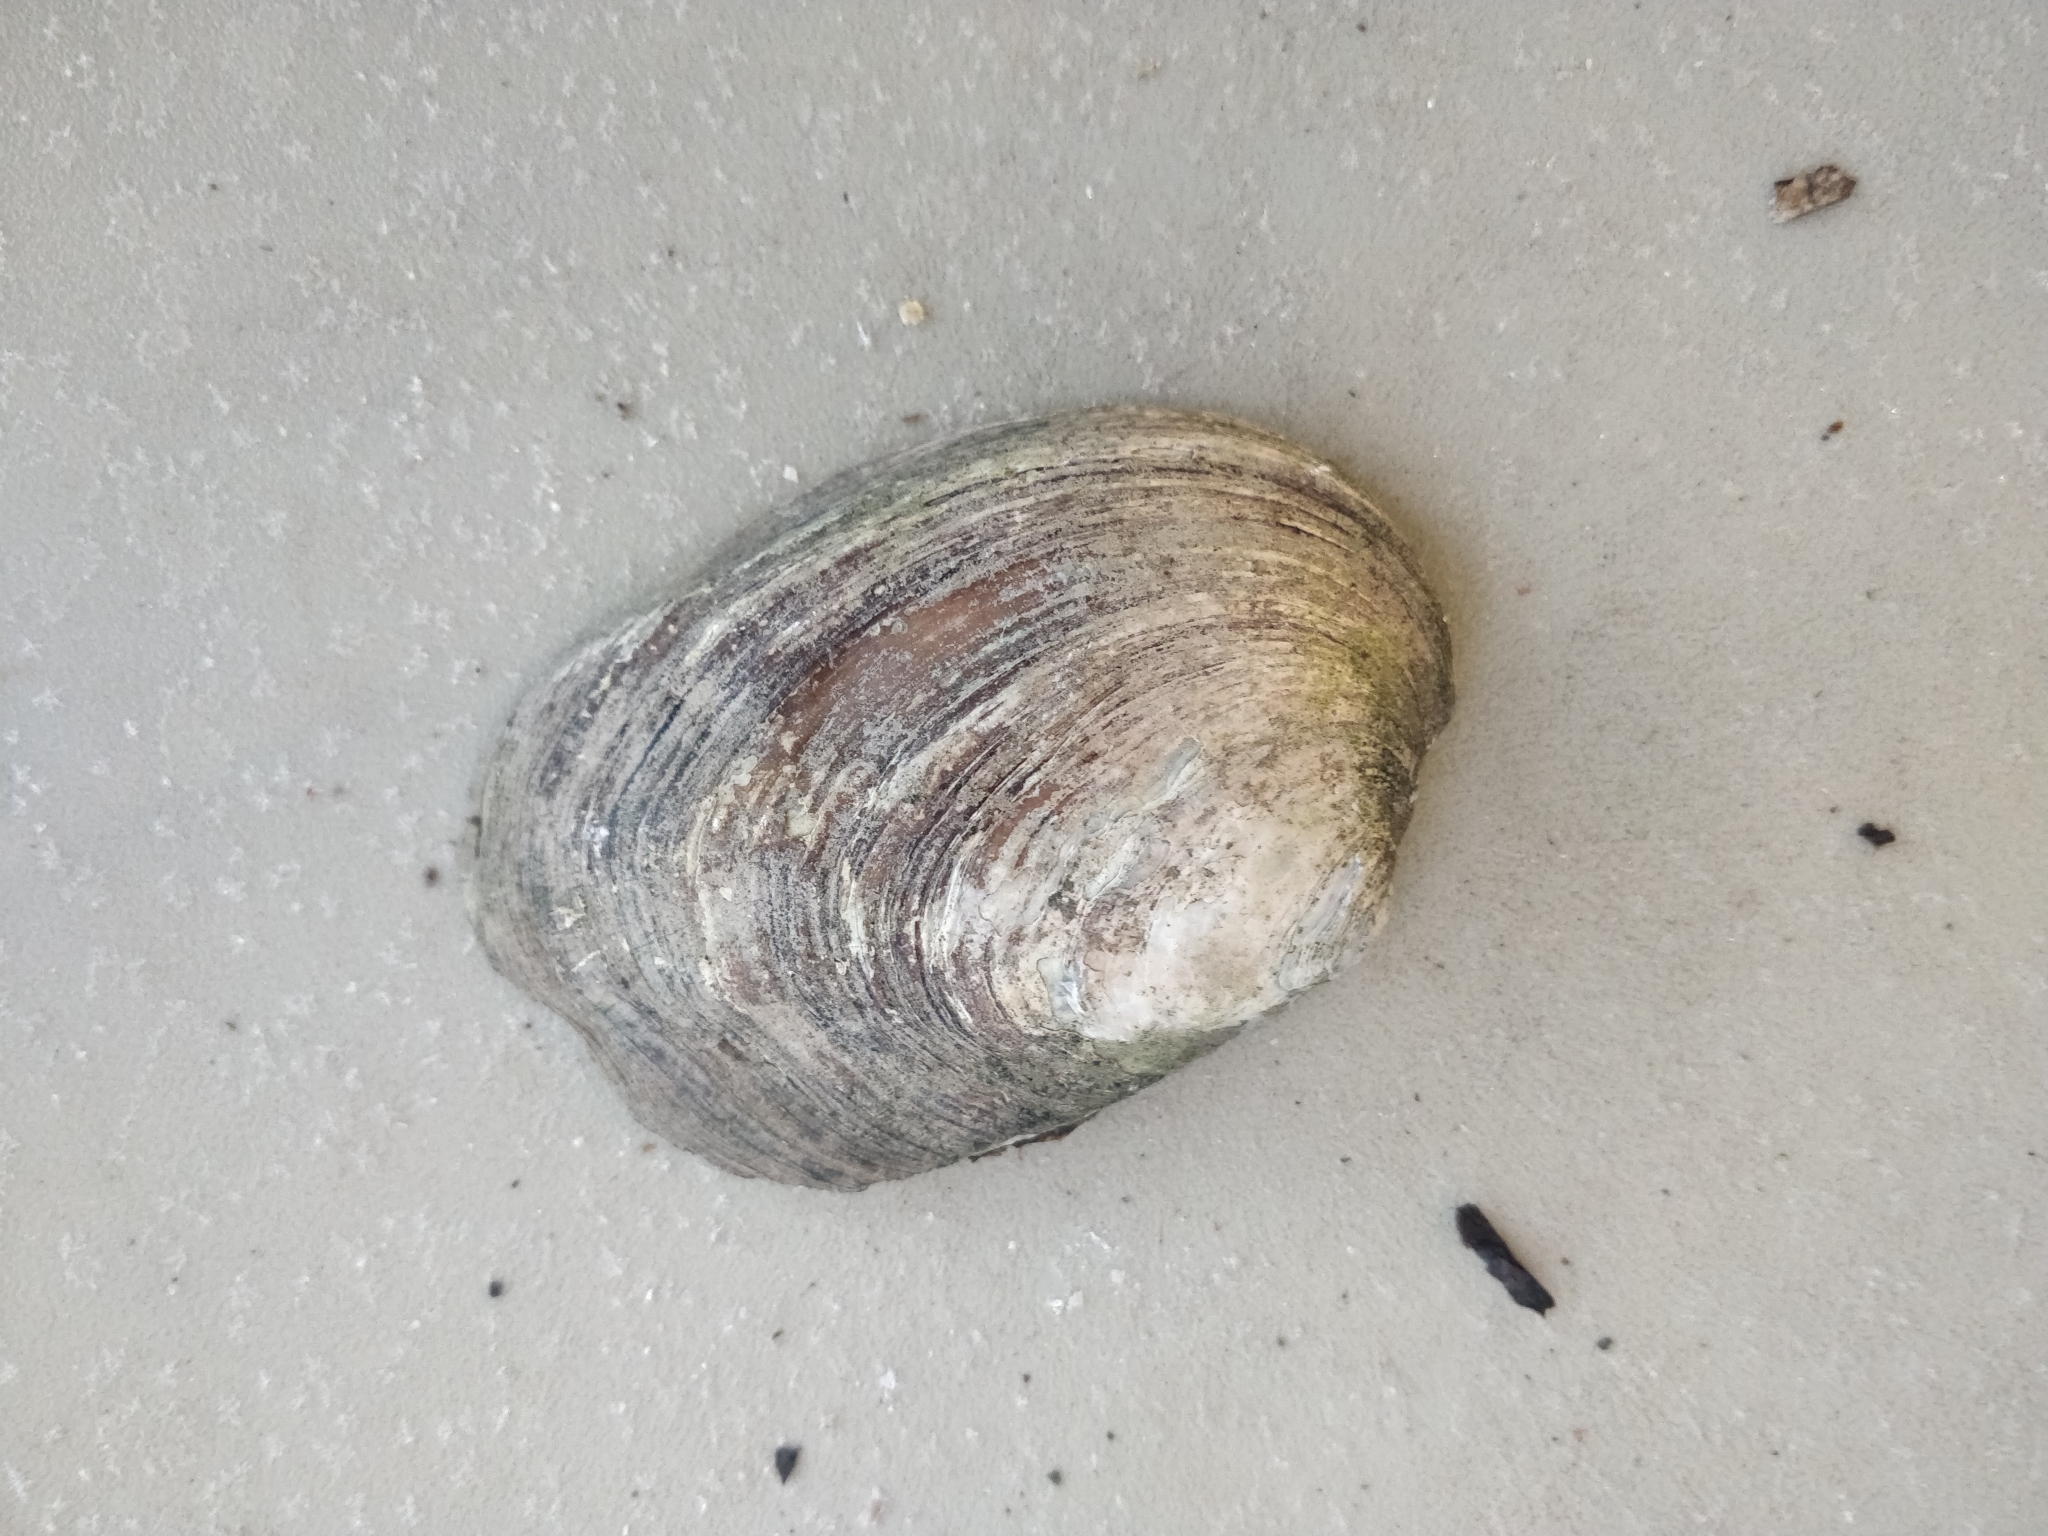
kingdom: Animalia
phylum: Mollusca
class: Bivalvia
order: Unionida
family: Unionidae
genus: Amblema
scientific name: Amblema plicata
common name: Threeridge
